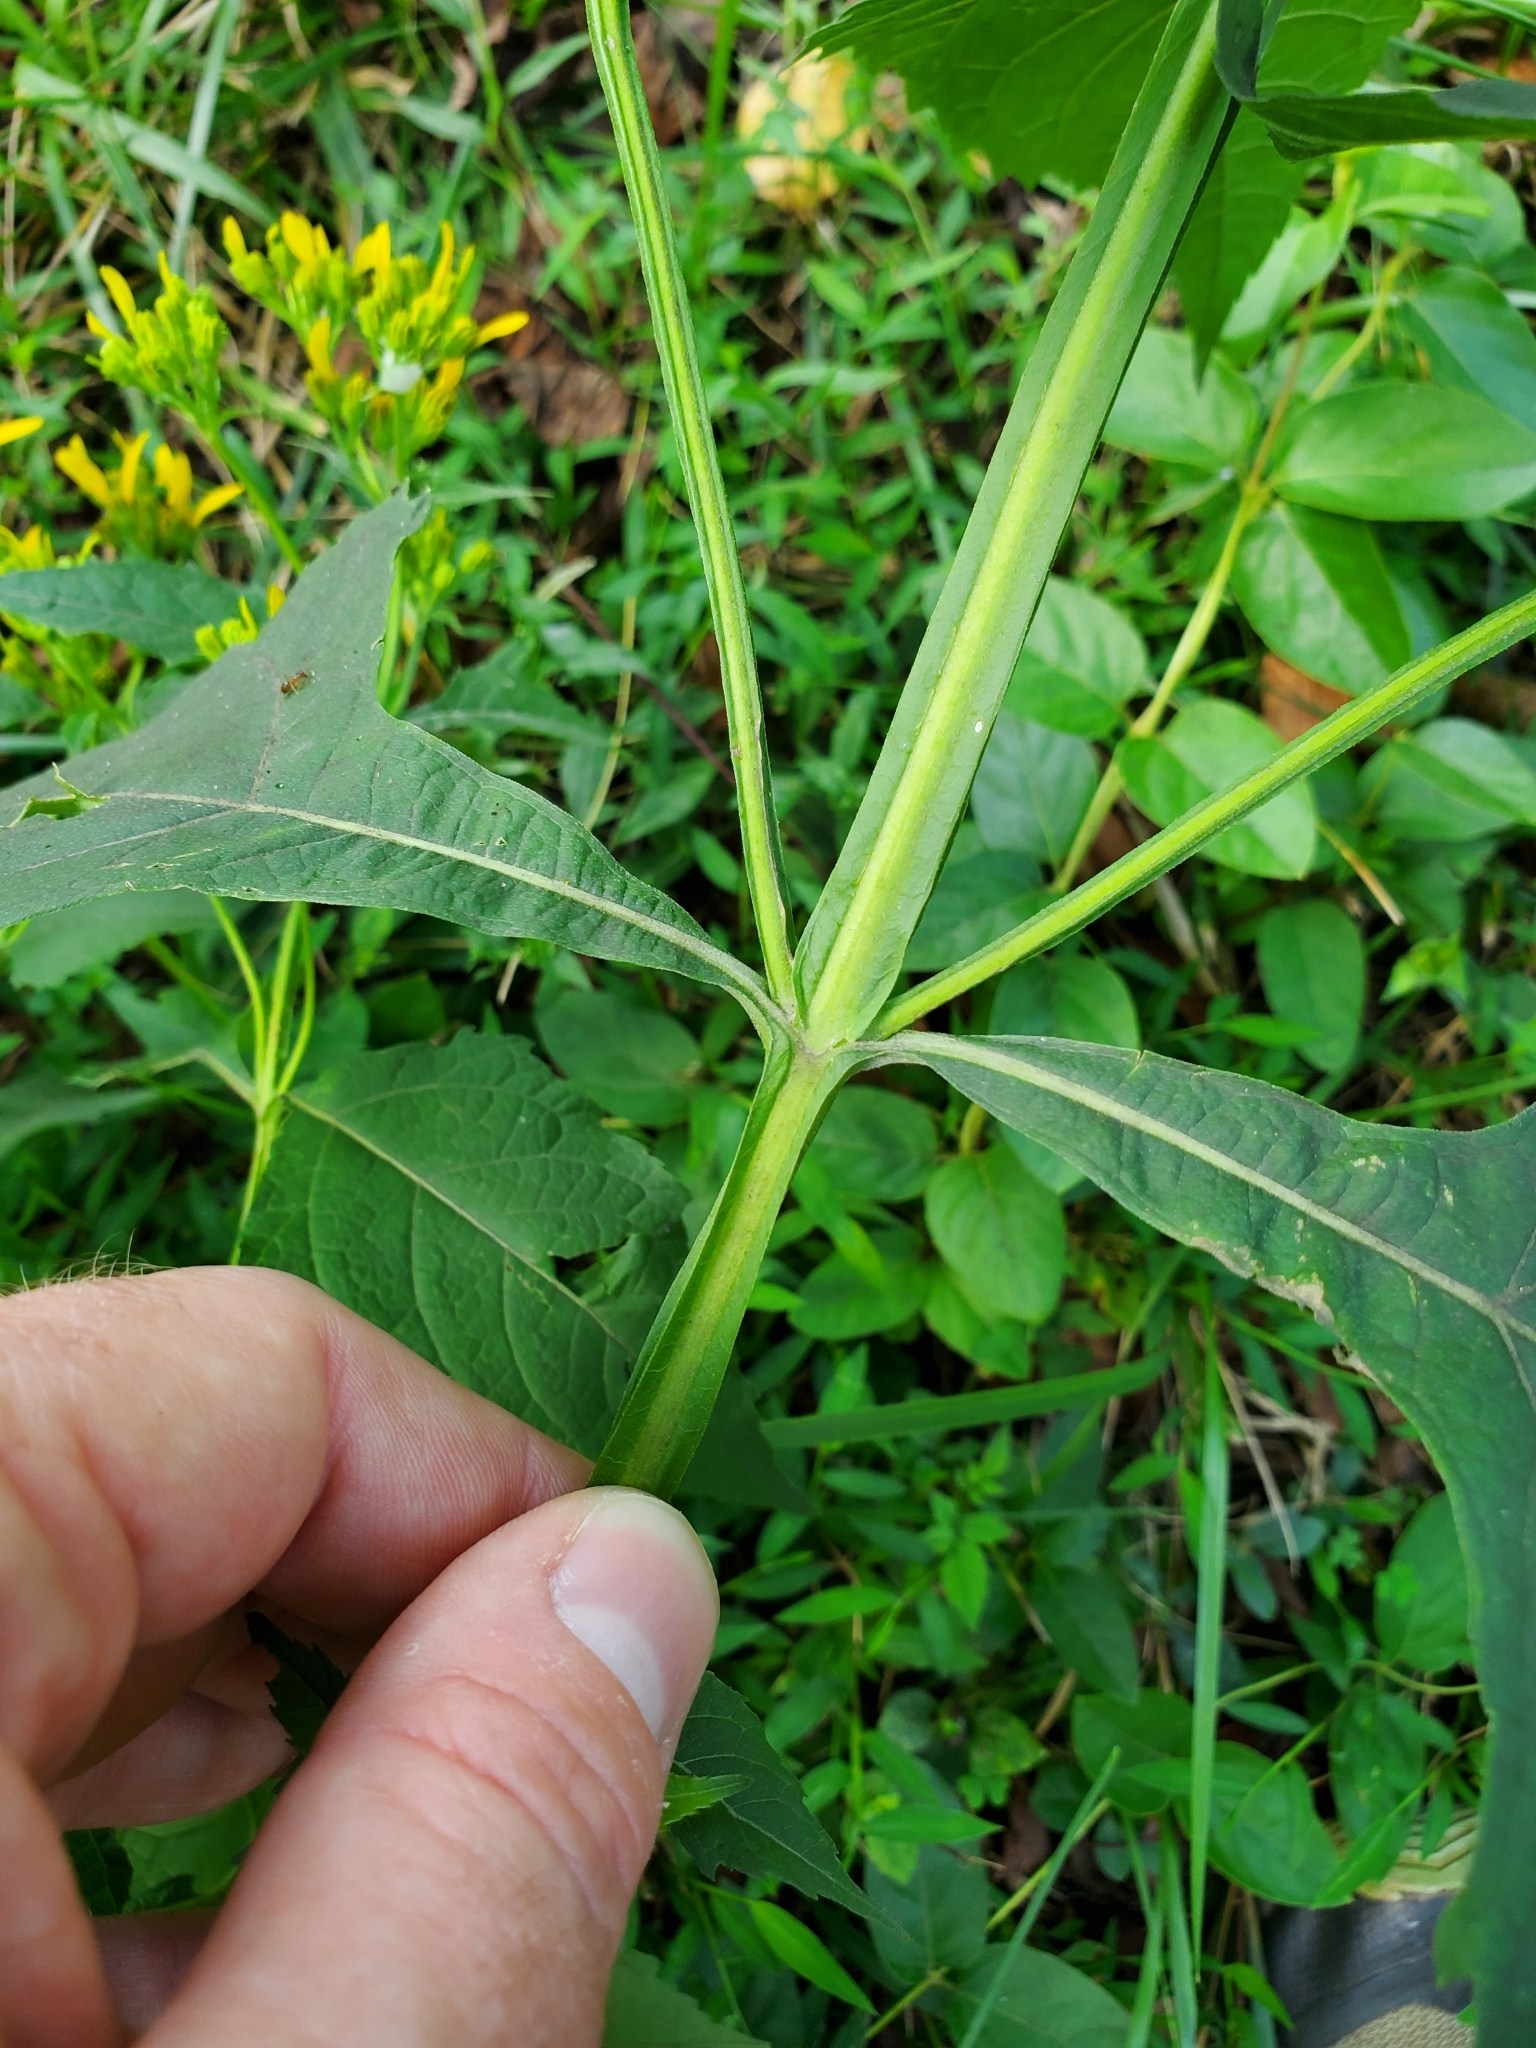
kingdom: Plantae
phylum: Tracheophyta
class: Magnoliopsida
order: Asterales
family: Asteraceae
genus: Verbesina
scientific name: Verbesina occidentalis
